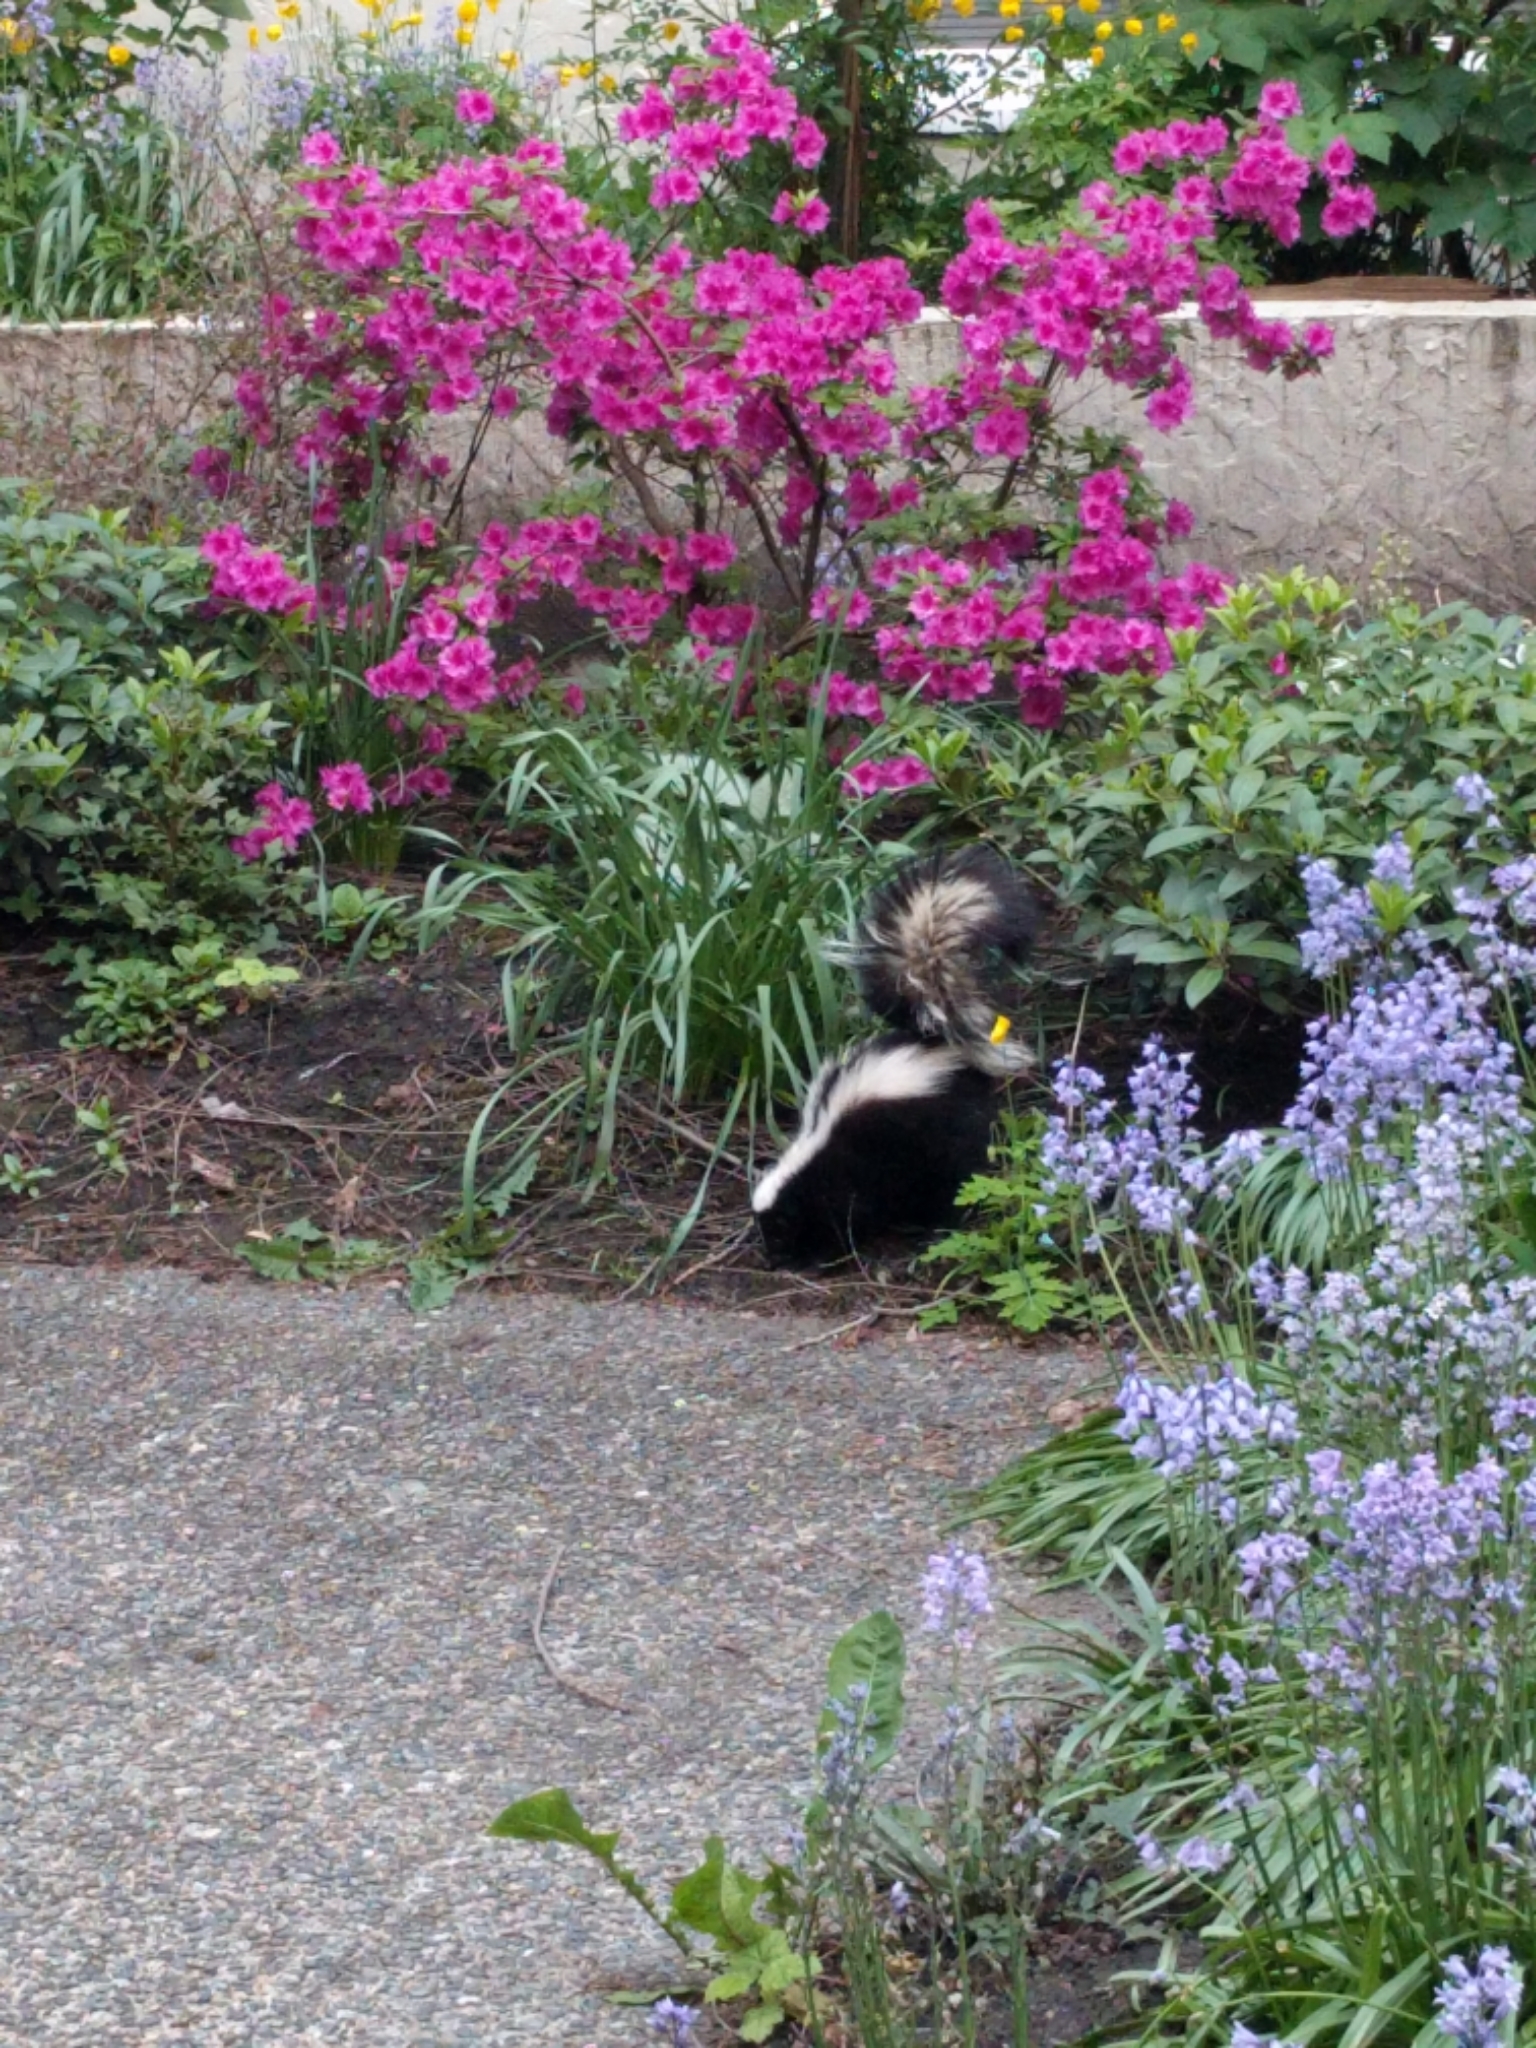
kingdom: Animalia
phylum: Chordata
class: Mammalia
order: Carnivora
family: Mephitidae
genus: Mephitis
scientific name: Mephitis mephitis
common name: Striped skunk
